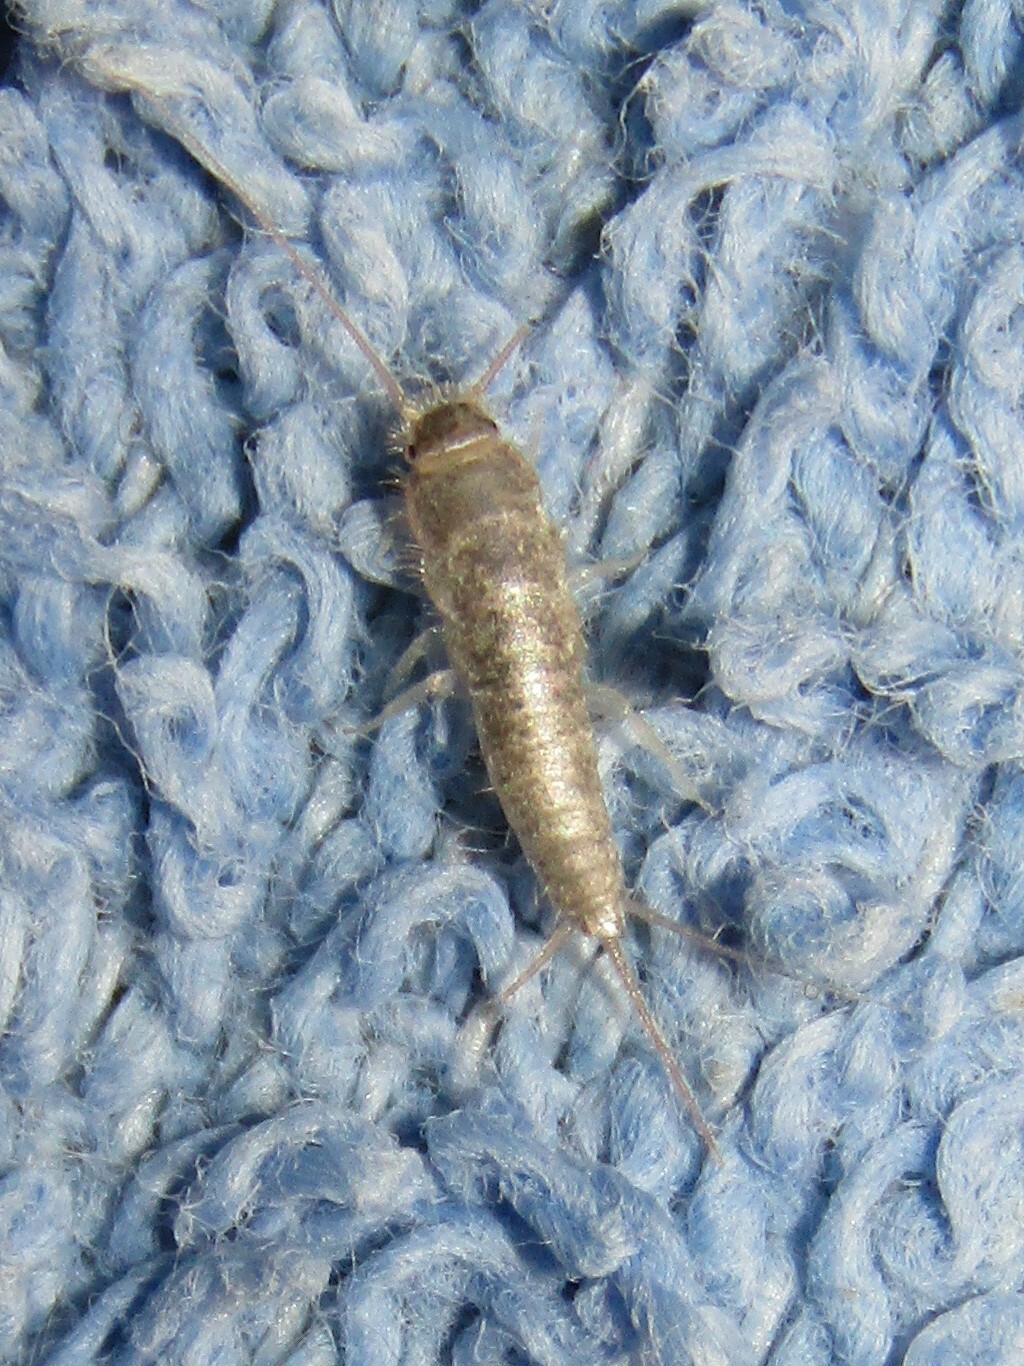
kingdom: Animalia
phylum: Arthropoda
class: Insecta
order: Zygentoma
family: Lepismatidae
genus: Ctenolepisma
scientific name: Ctenolepisma longicaudatum
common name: Silverfish
